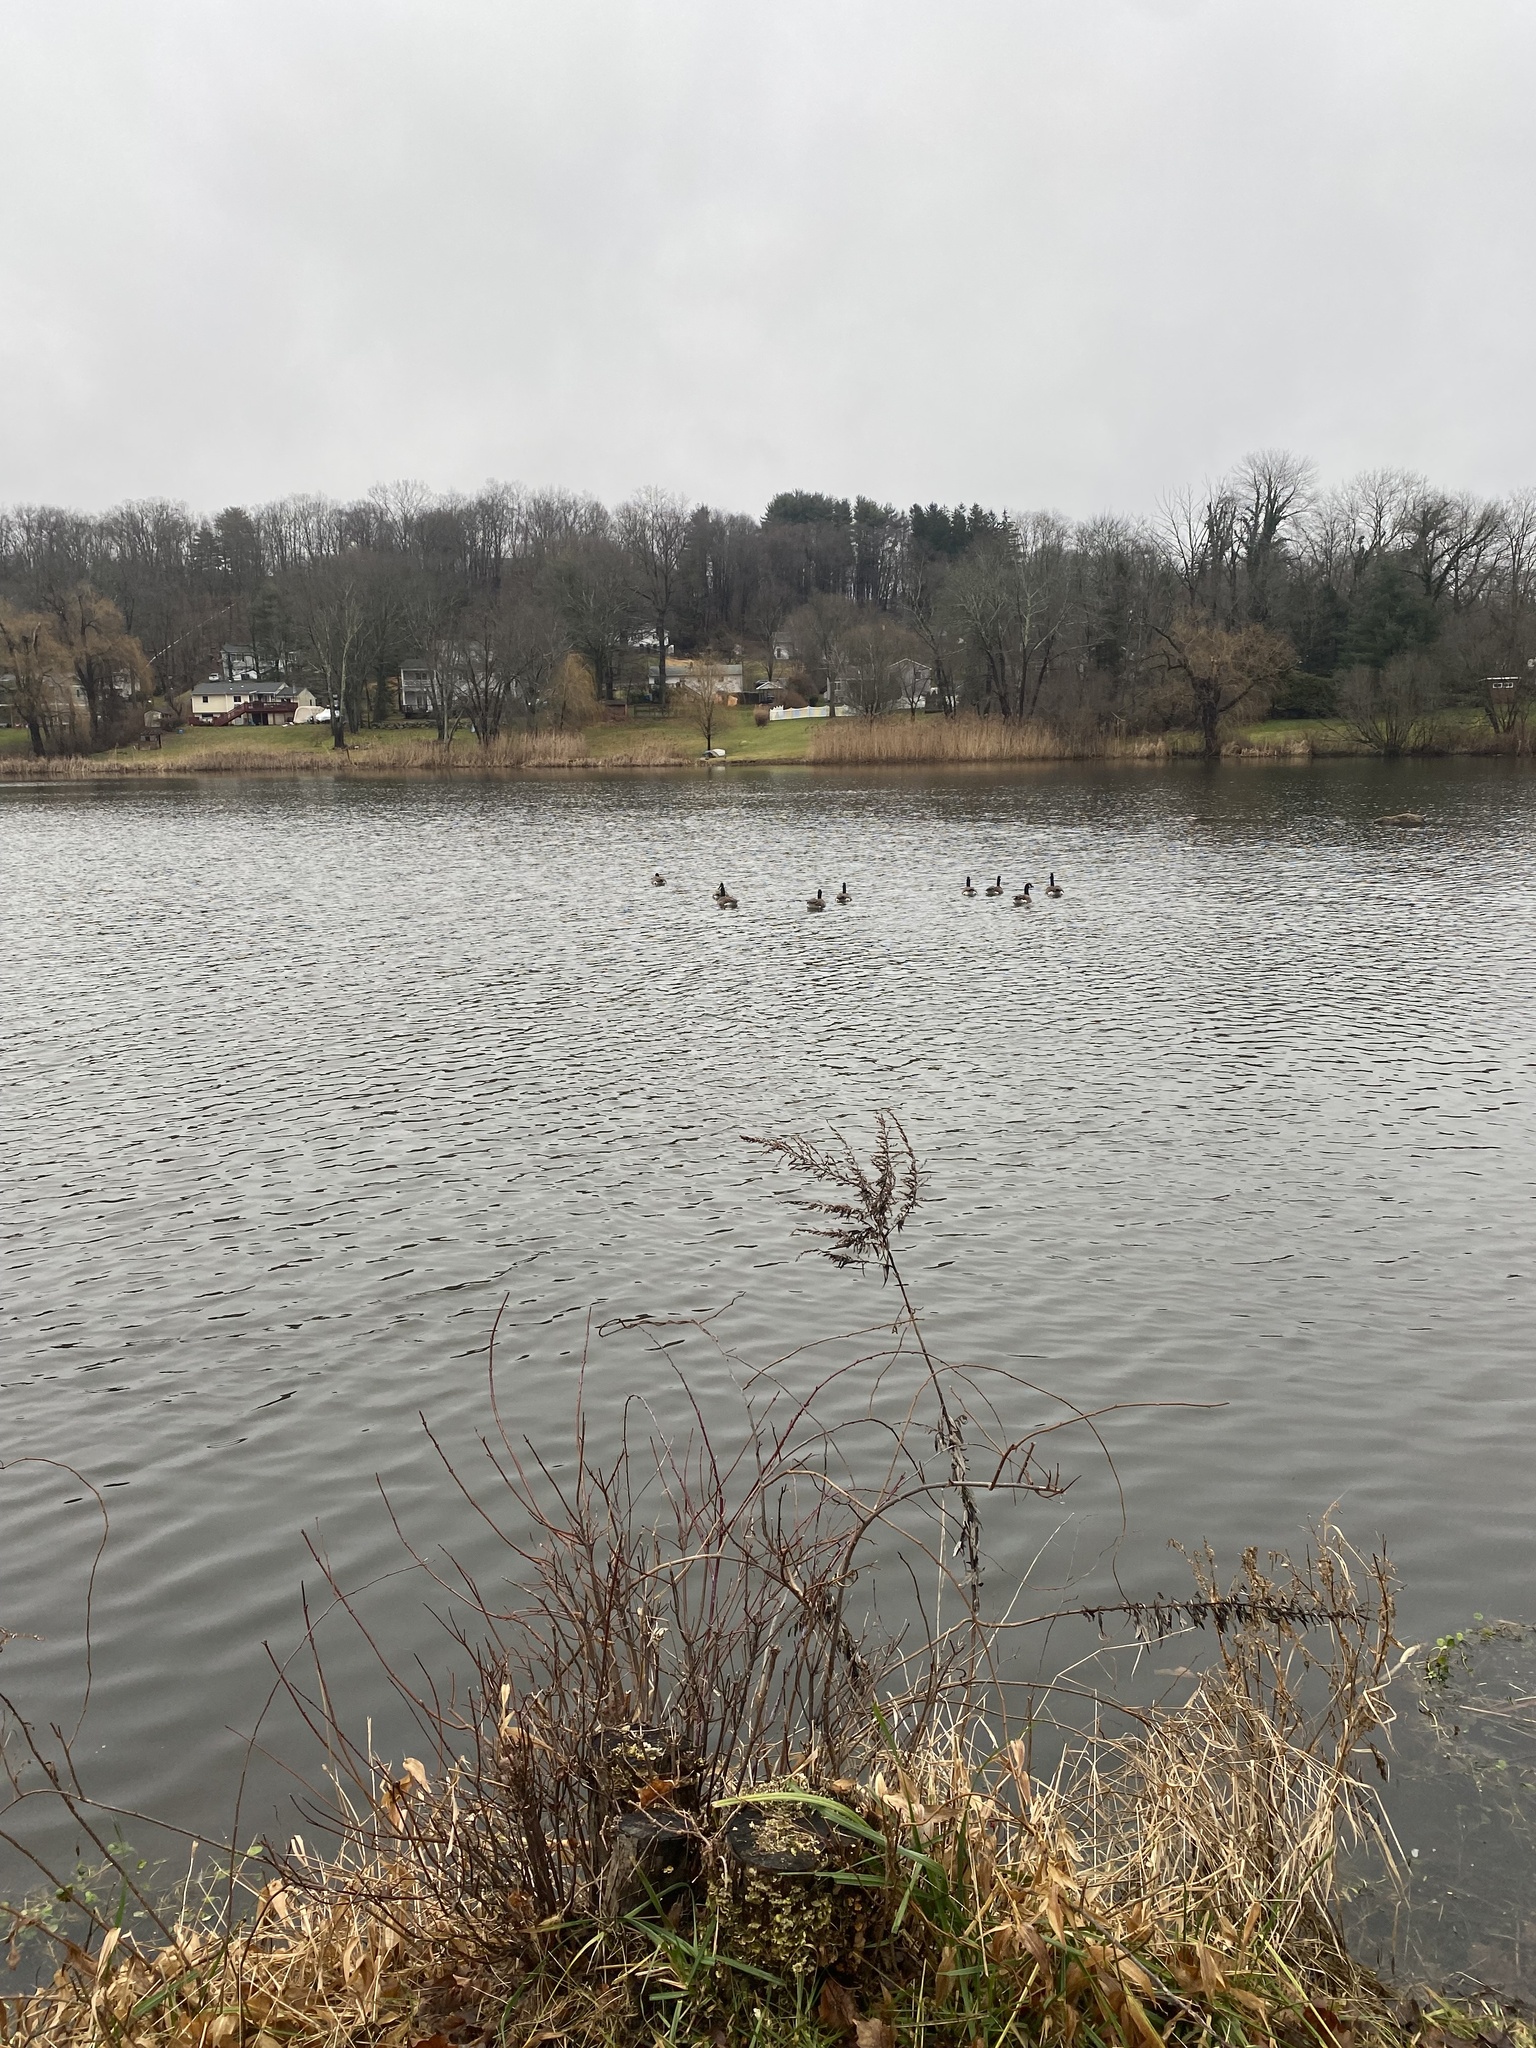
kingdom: Animalia
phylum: Chordata
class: Aves
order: Anseriformes
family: Anatidae
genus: Branta
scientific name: Branta canadensis
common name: Canada goose
